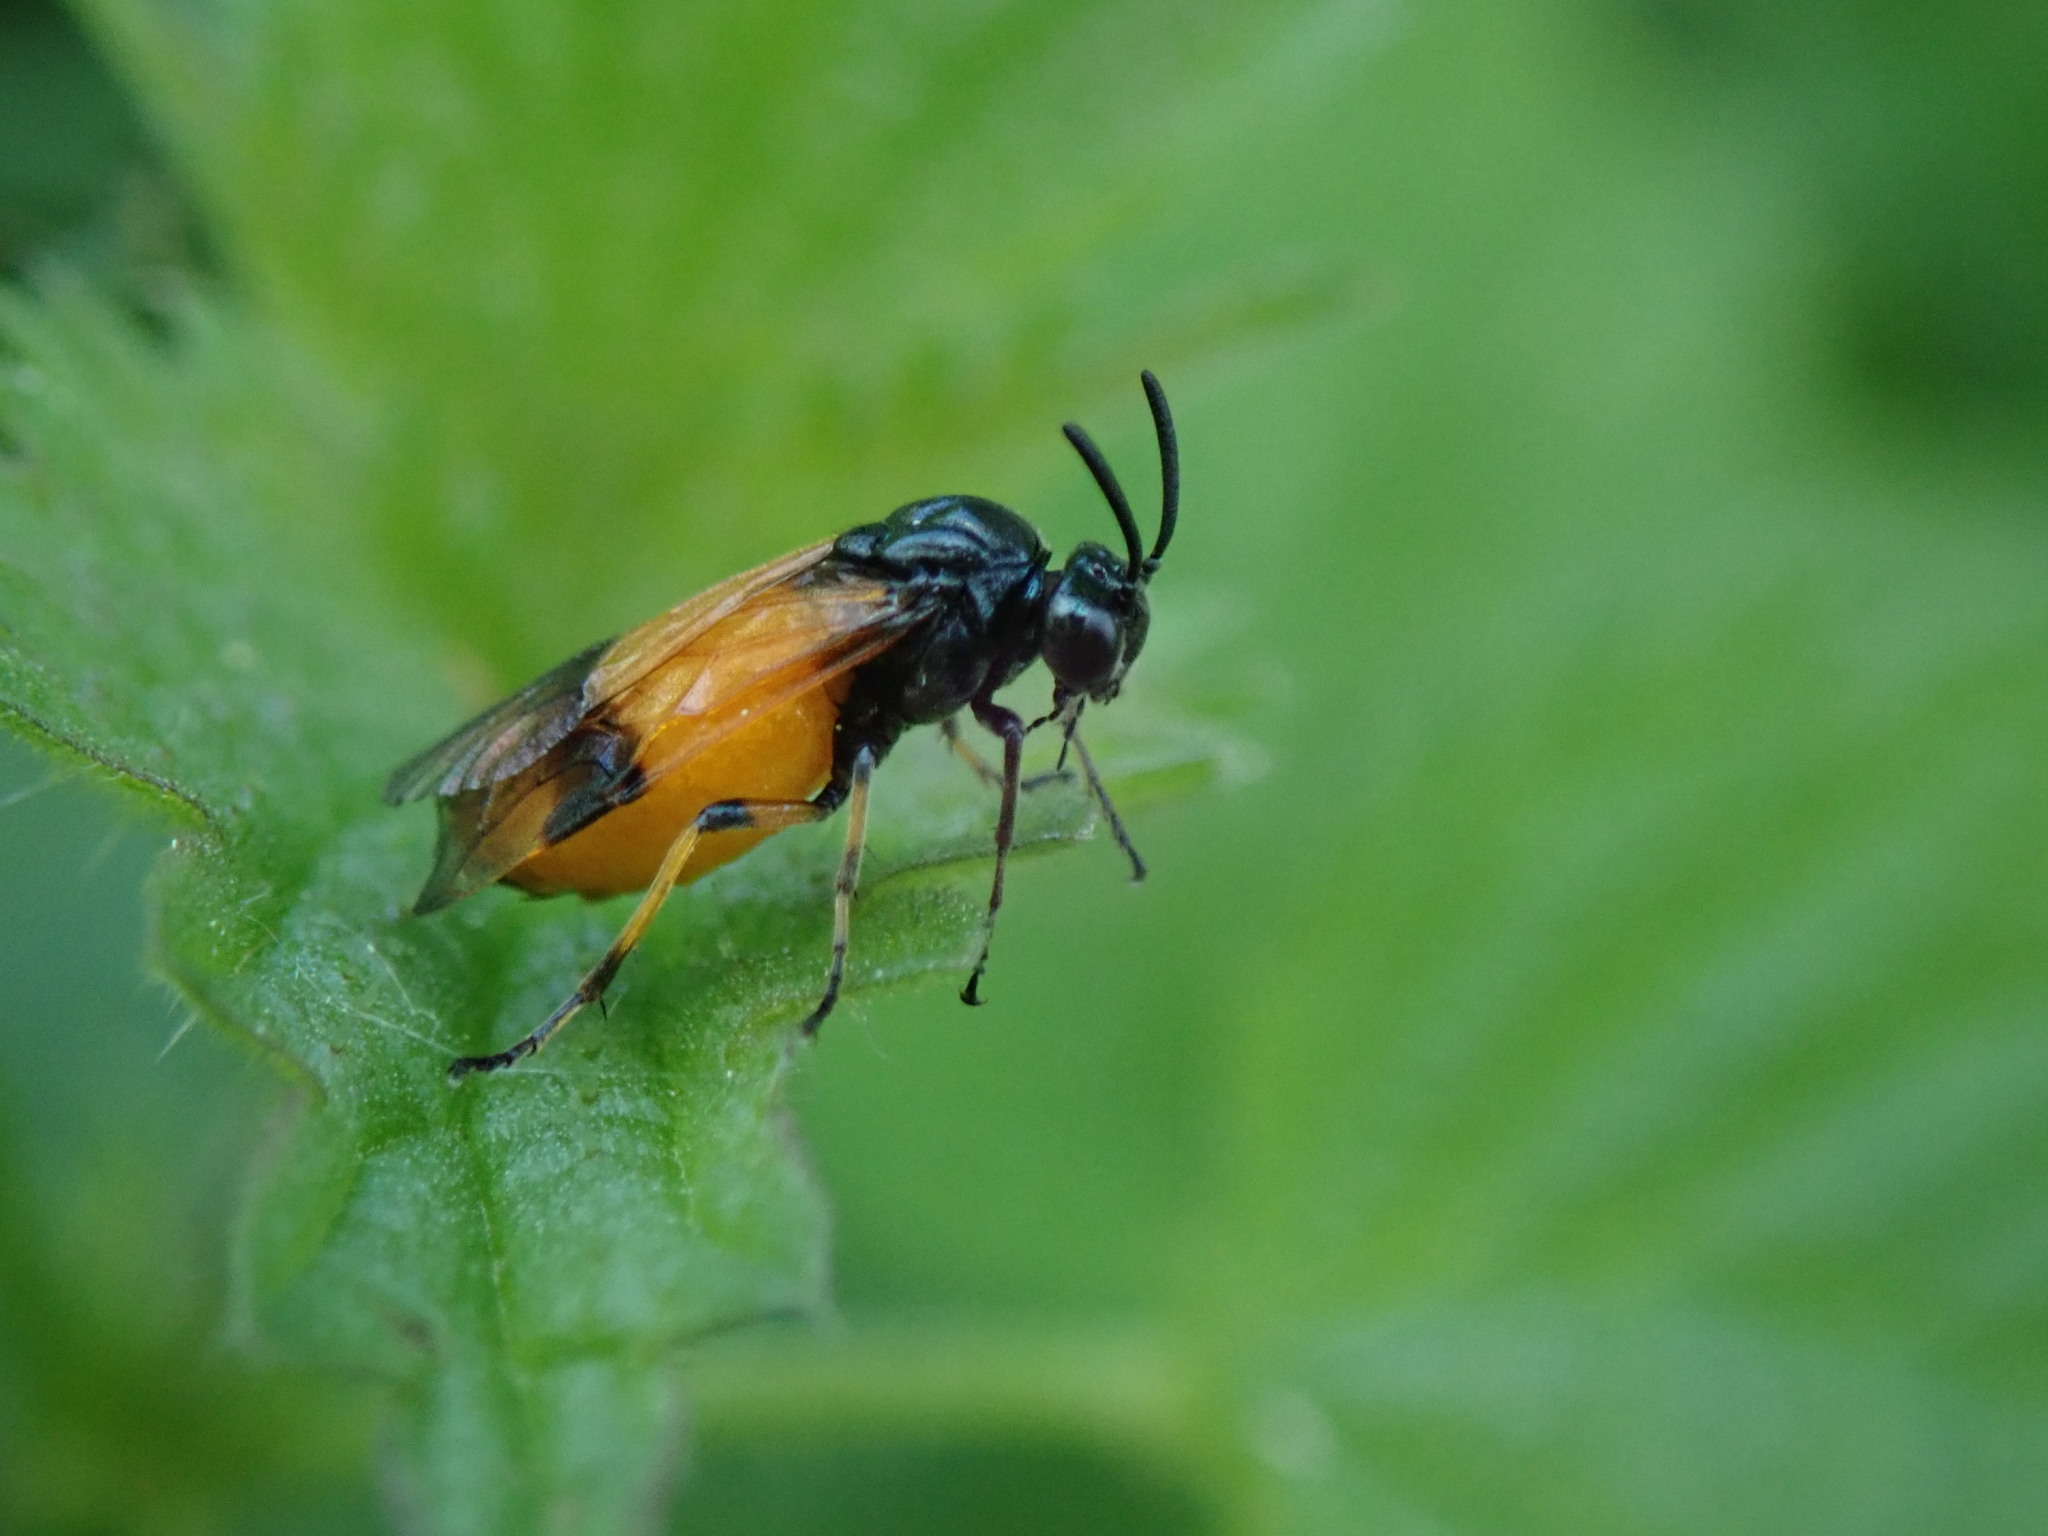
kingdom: Animalia
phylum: Arthropoda
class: Insecta
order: Hymenoptera
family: Argidae
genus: Arge
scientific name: Arge cyanocrocea
